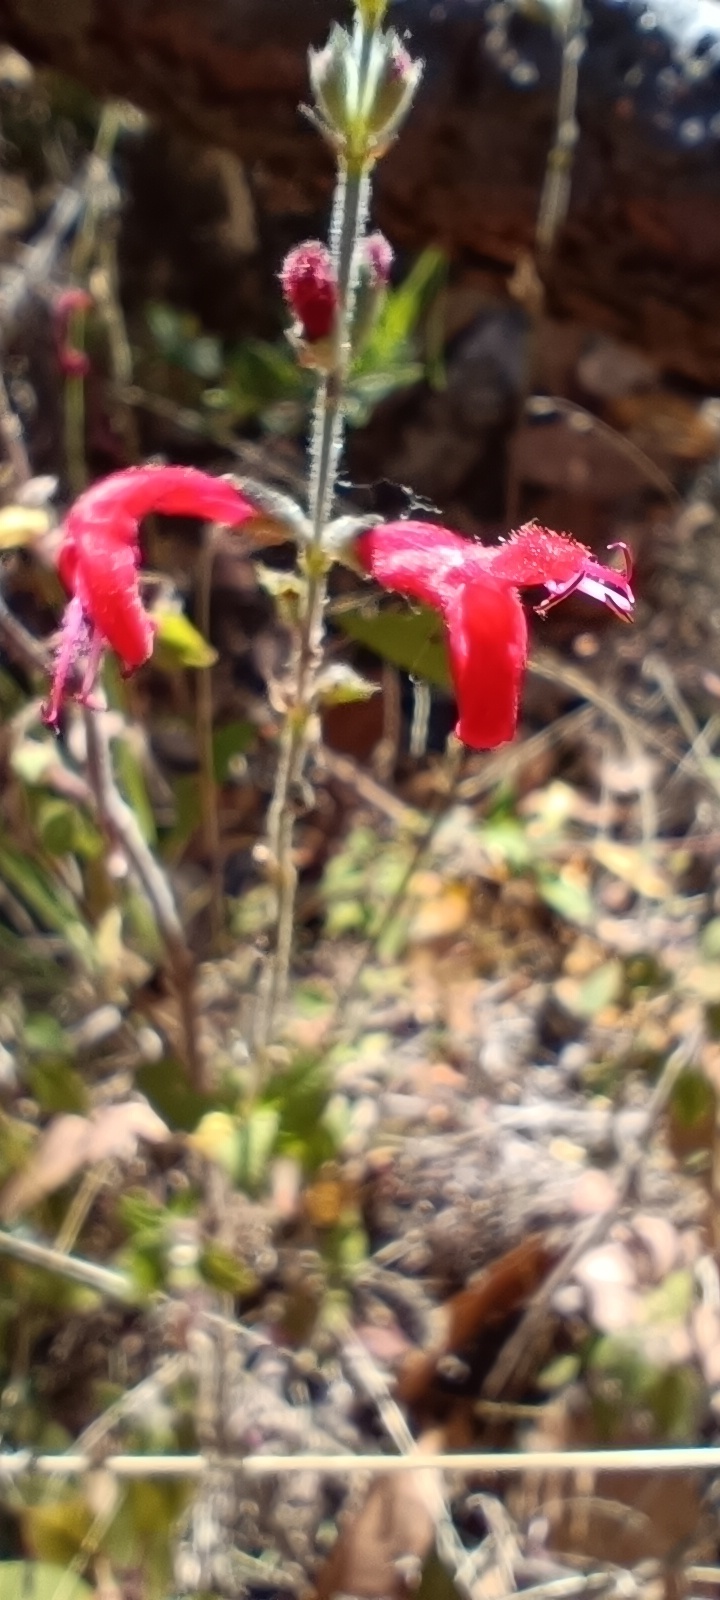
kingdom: Plantae
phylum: Tracheophyta
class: Magnoliopsida
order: Lamiales
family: Lamiaceae
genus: Salvia
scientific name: Salvia elegans
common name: Pineapple sage
